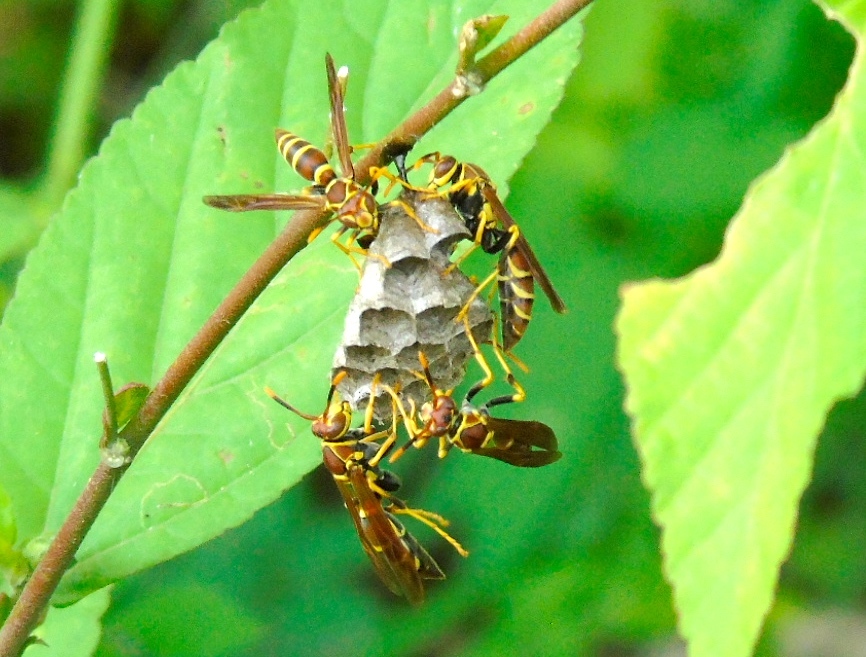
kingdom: Animalia
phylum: Arthropoda
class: Insecta
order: Hymenoptera
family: Eumenidae
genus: Polistes
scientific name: Polistes instabilis
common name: Unstable paper wasp
